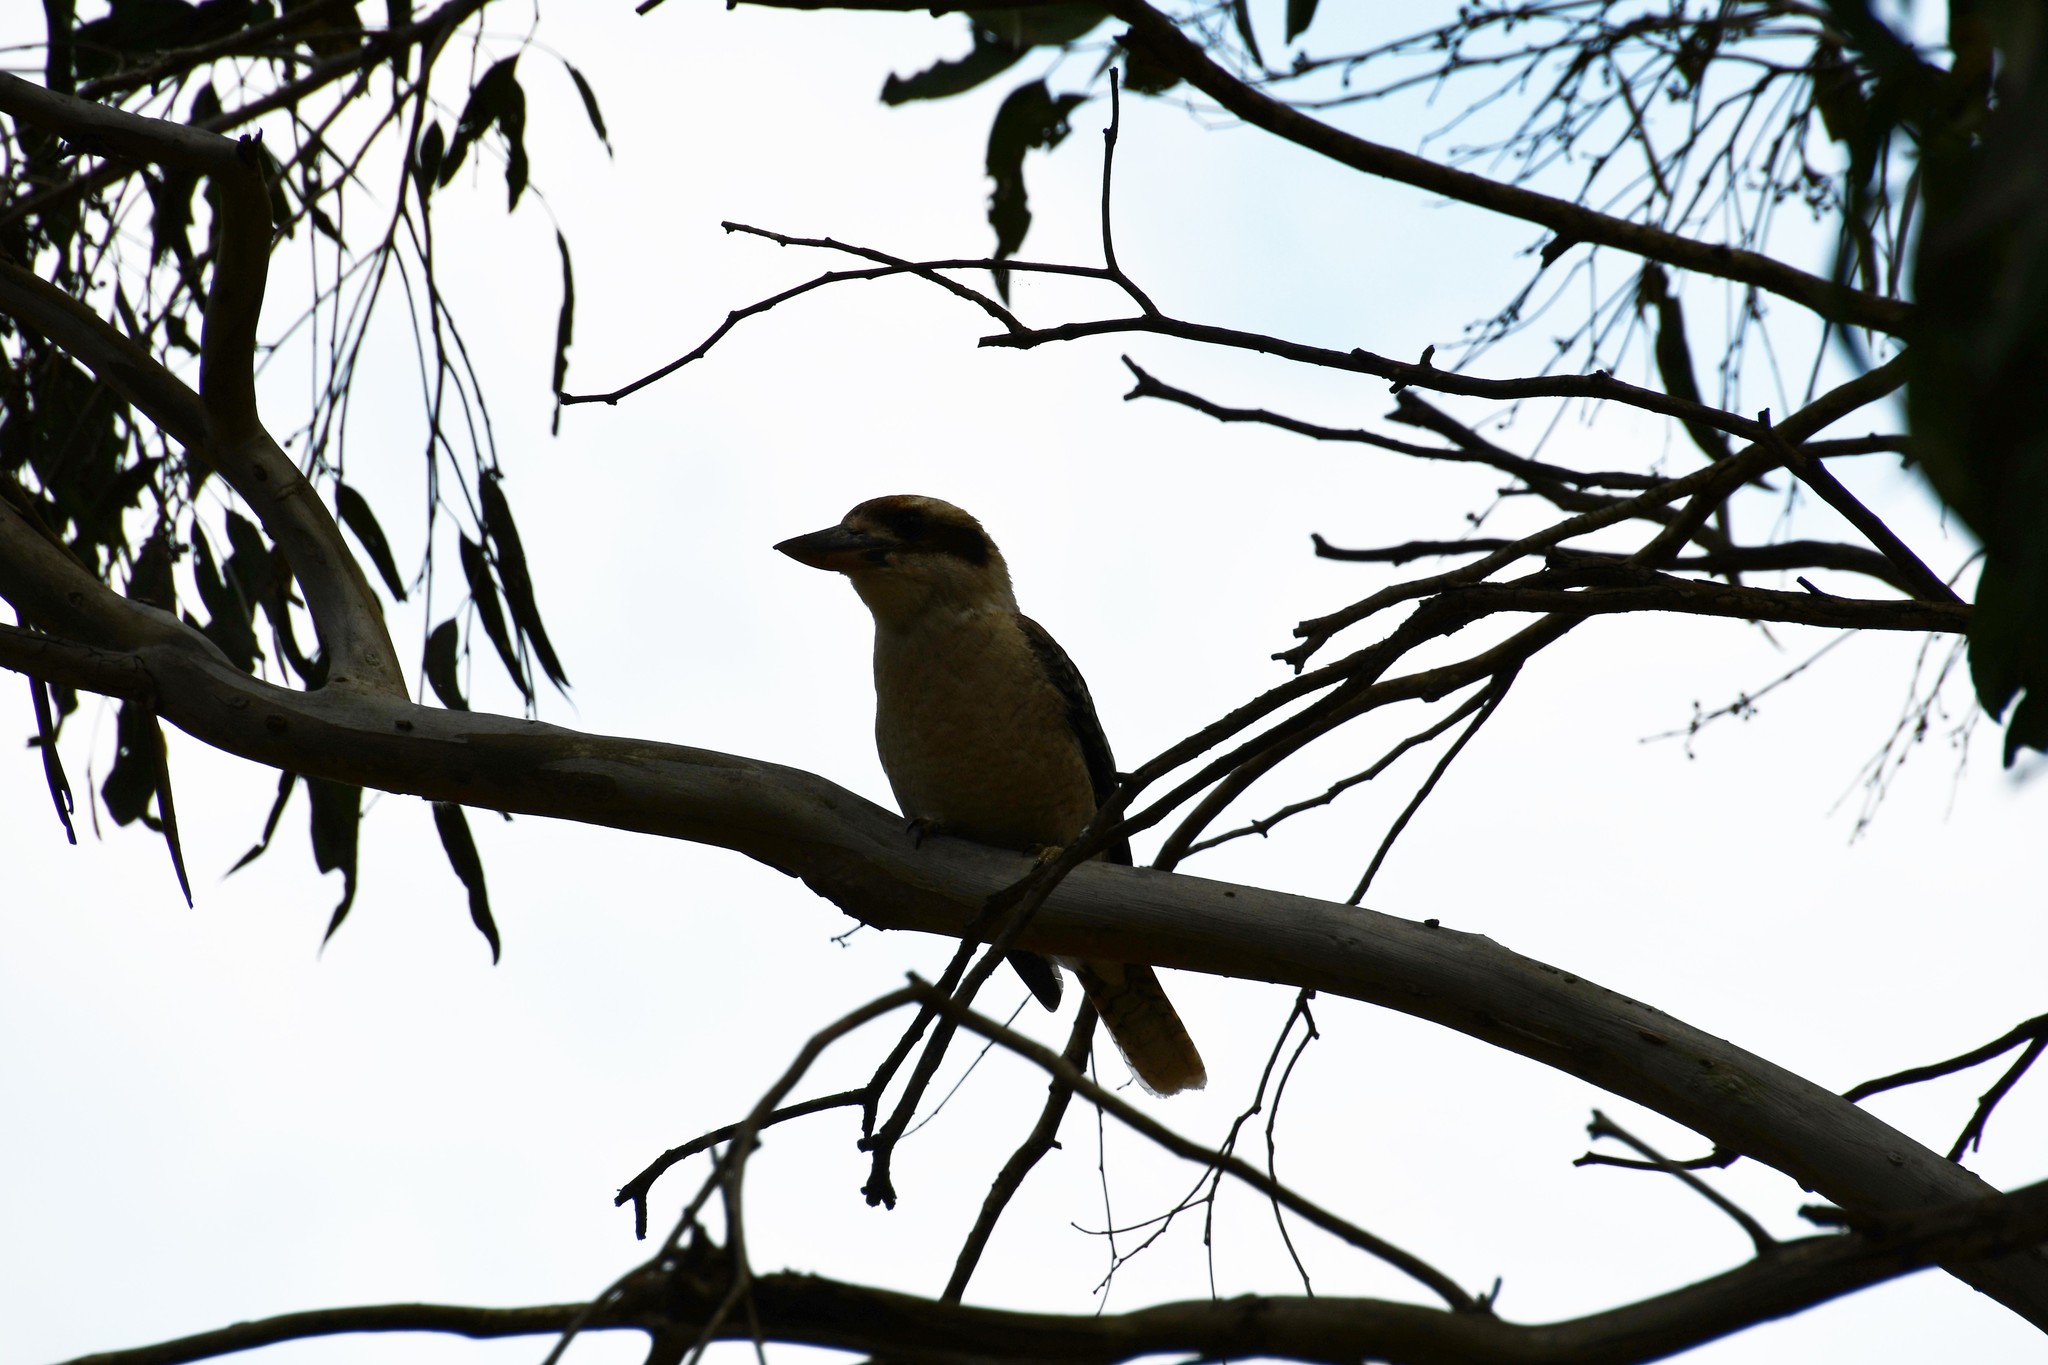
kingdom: Animalia
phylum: Chordata
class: Aves
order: Coraciiformes
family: Alcedinidae
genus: Dacelo
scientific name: Dacelo novaeguineae
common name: Laughing kookaburra
